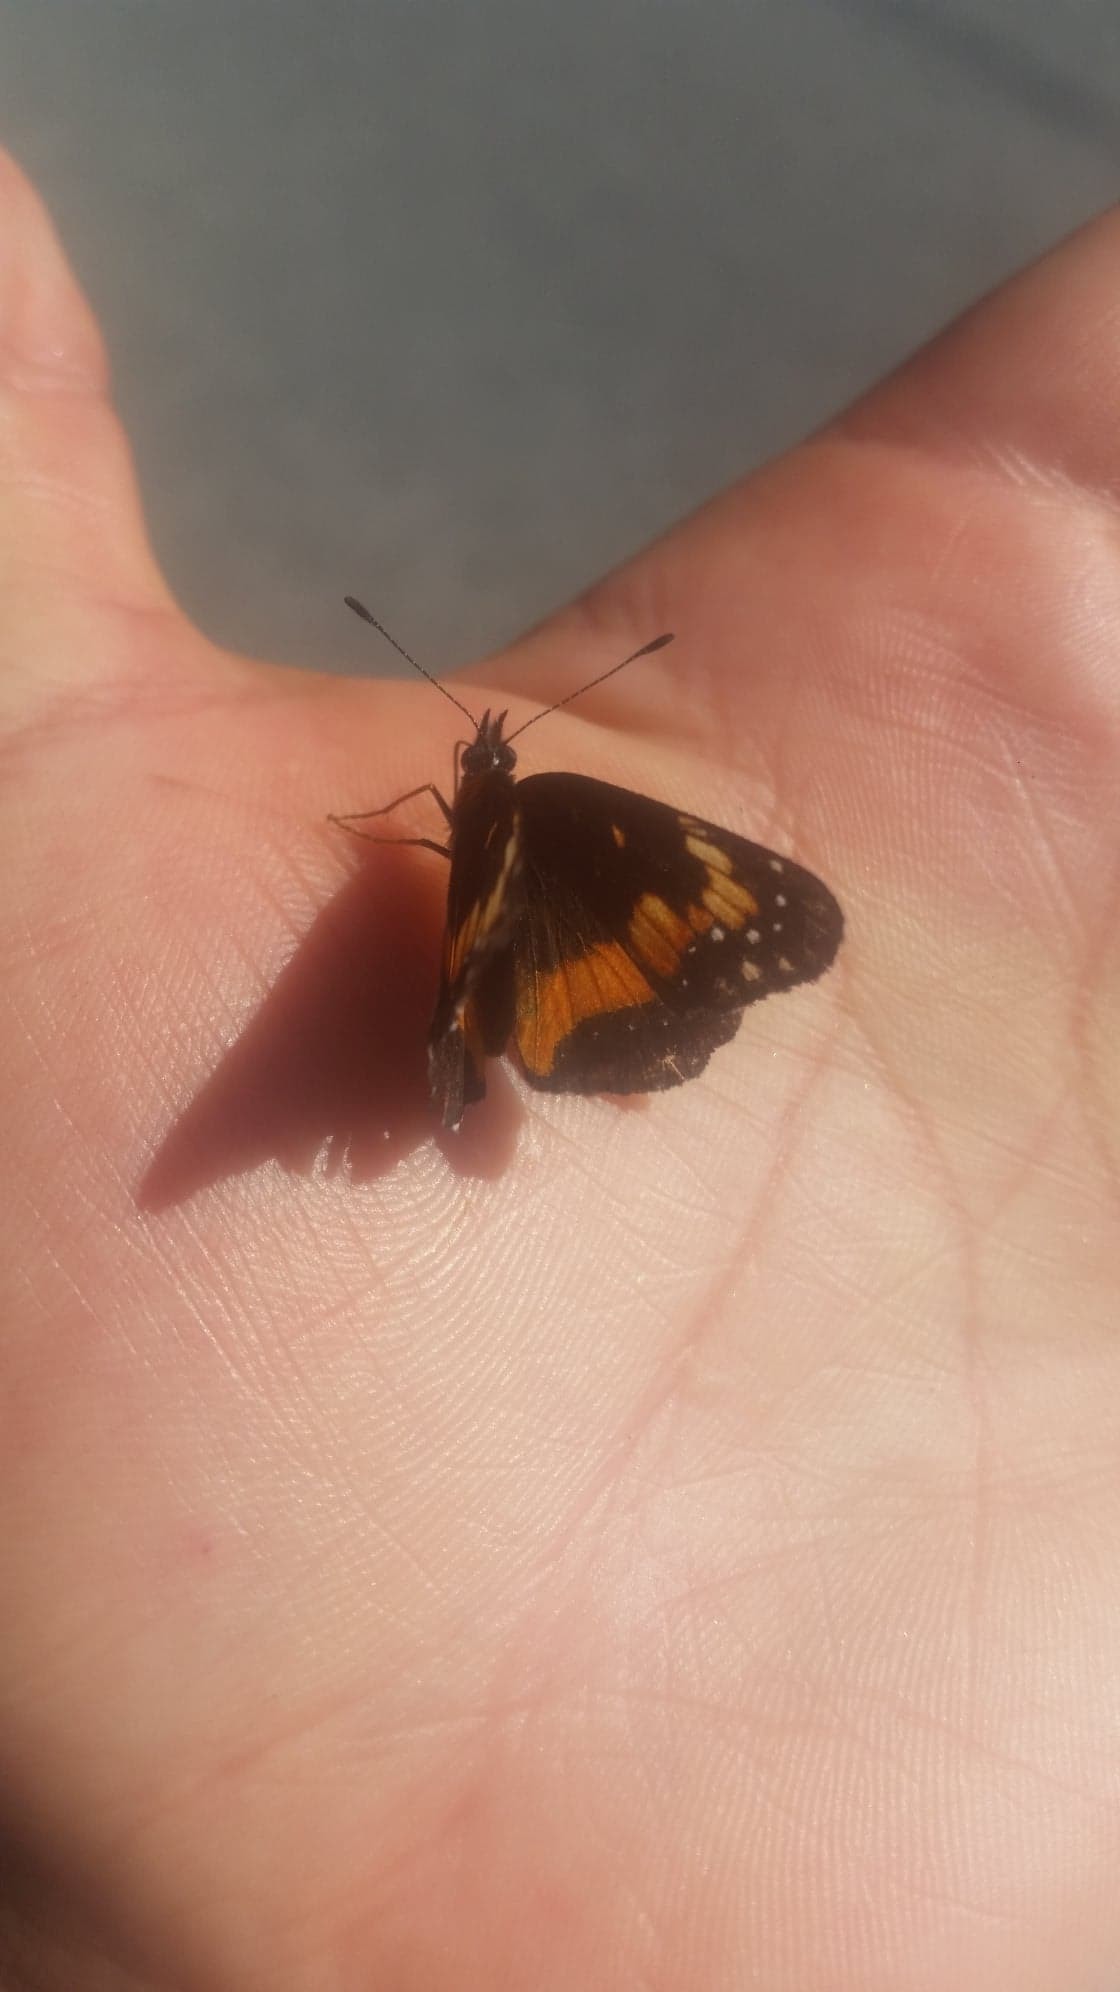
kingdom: Animalia
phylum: Arthropoda
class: Insecta
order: Lepidoptera
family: Nymphalidae
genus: Chlosyne
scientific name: Chlosyne lacinia
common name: Bordered patch
